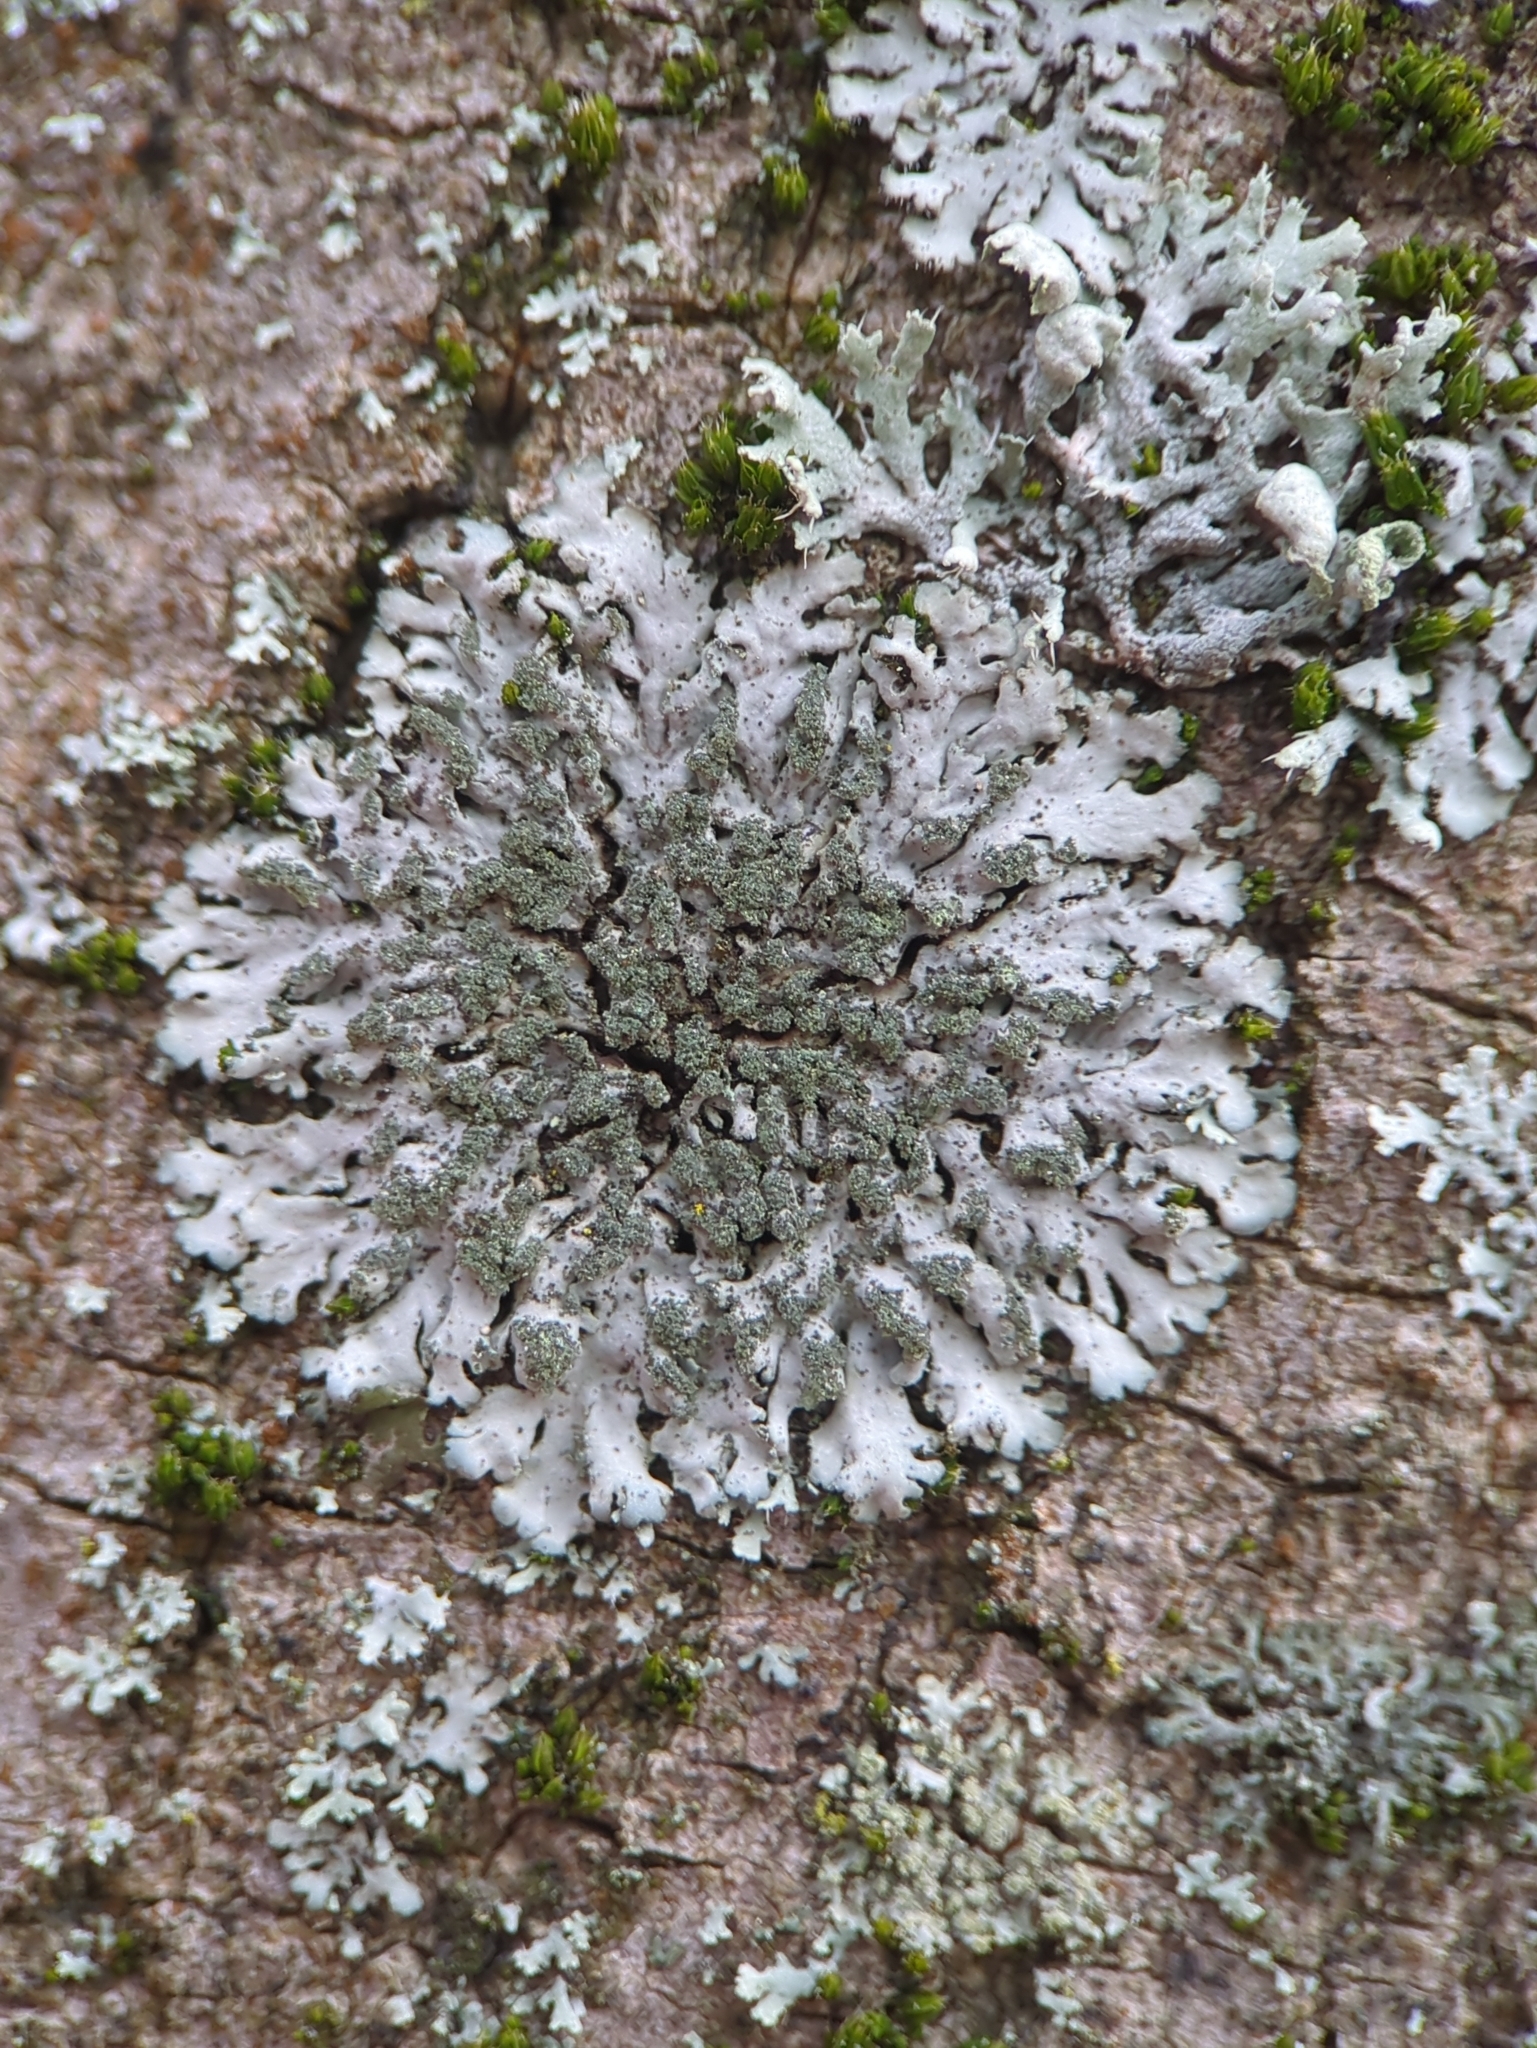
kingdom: Fungi
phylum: Ascomycota
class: Lecanoromycetes
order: Caliciales
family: Physciaceae
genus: Phaeophyscia
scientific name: Phaeophyscia orbicularis
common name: Mealy shadow lichen
